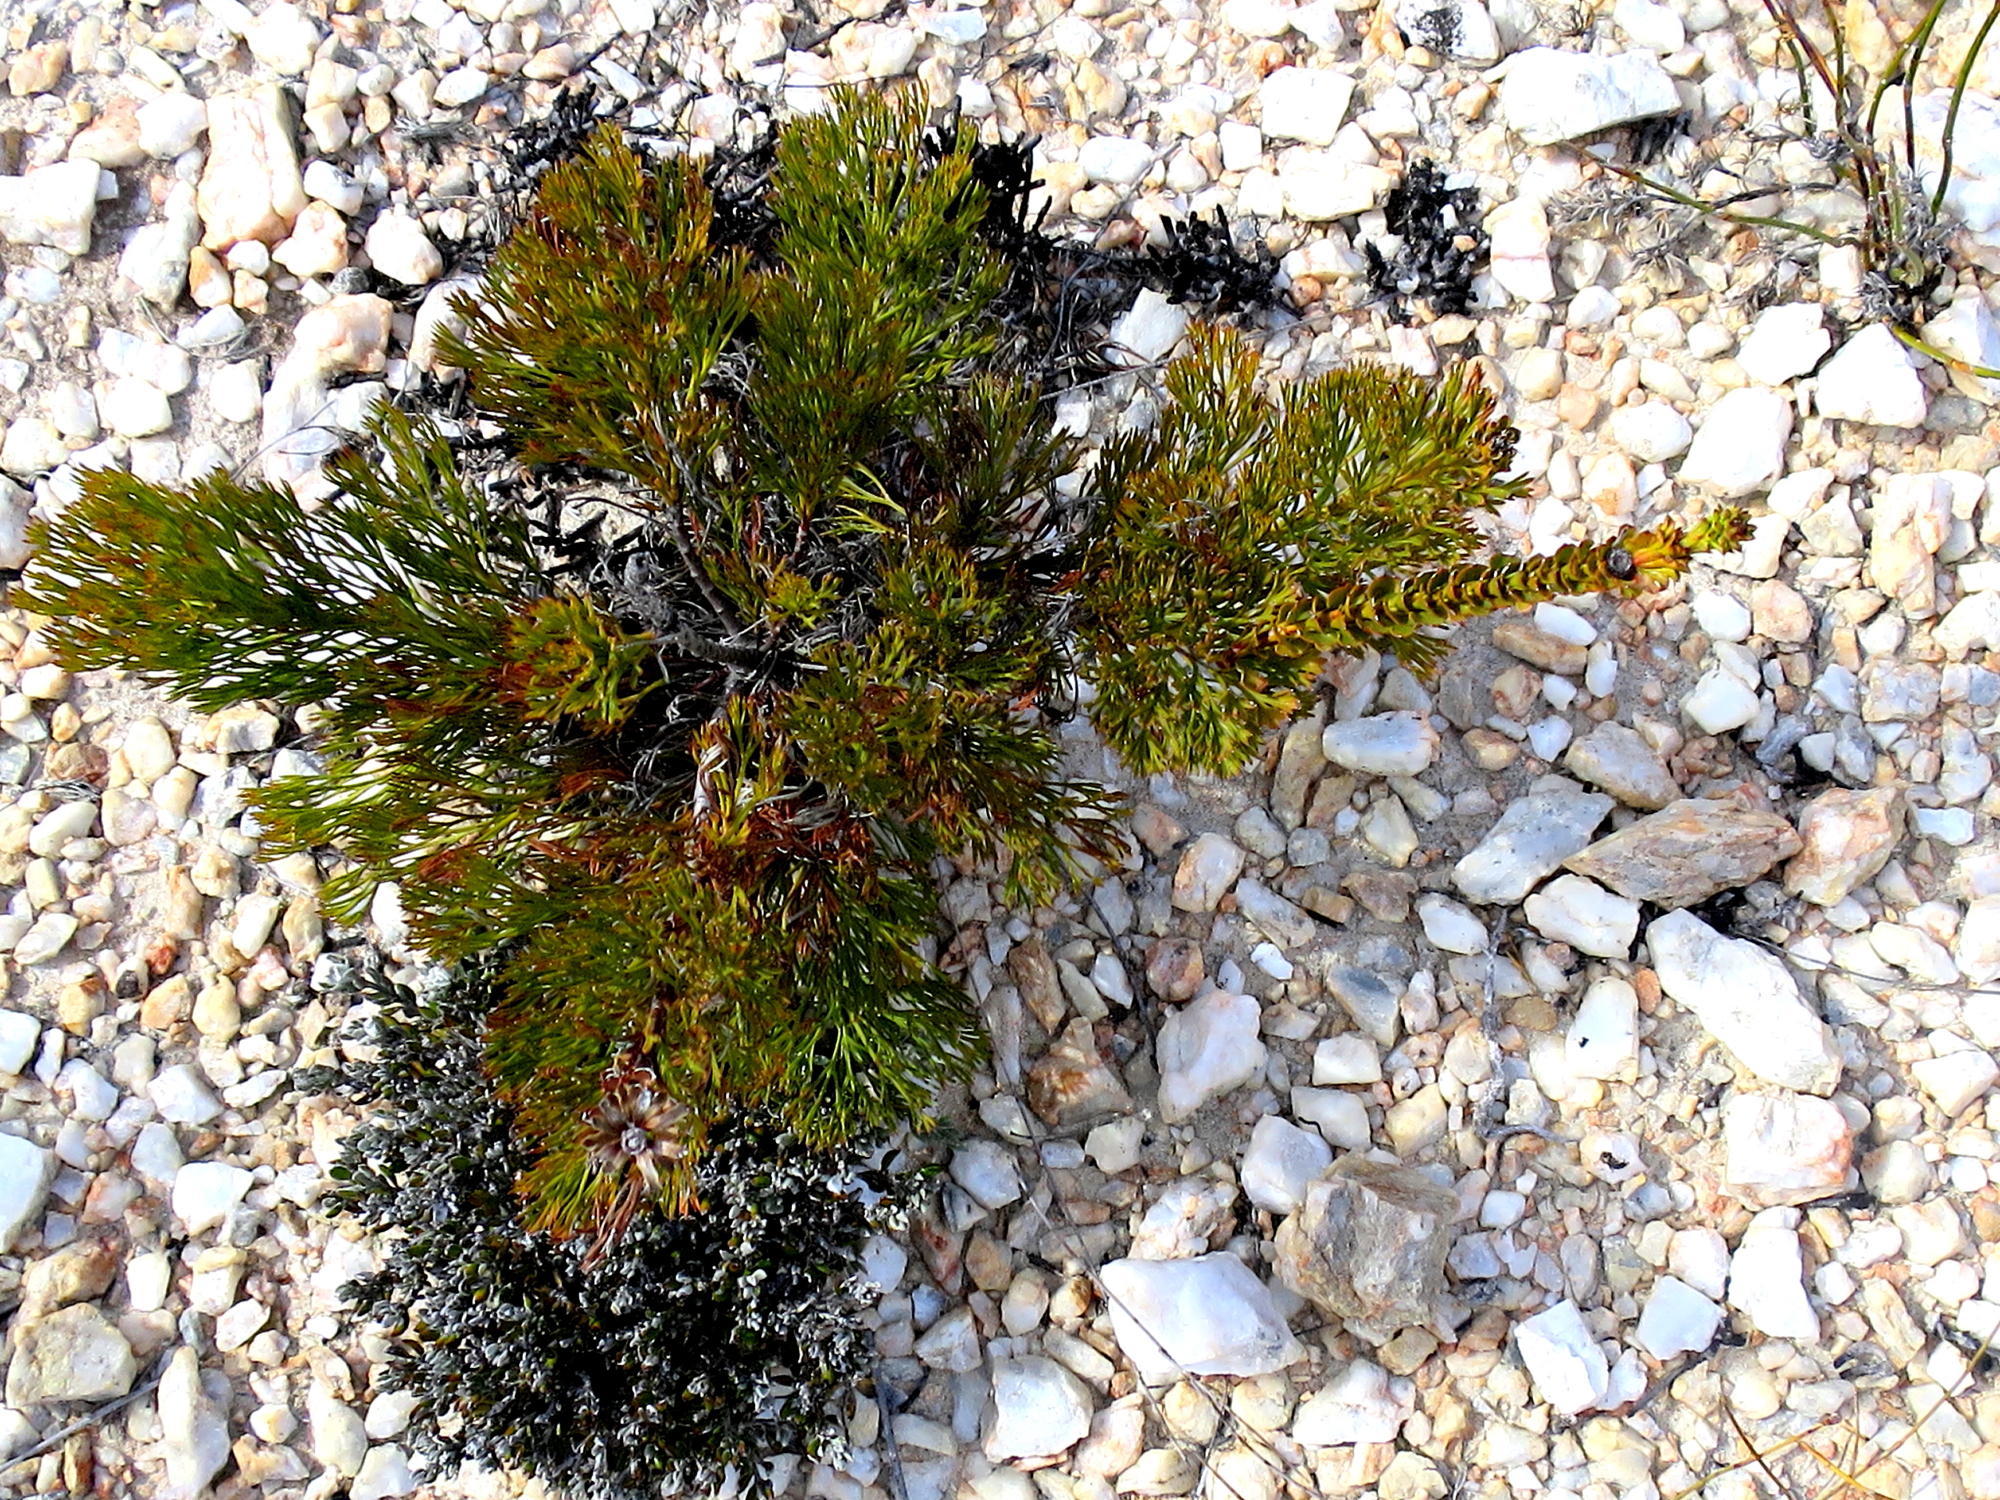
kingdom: Plantae
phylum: Tracheophyta
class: Magnoliopsida
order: Proteales
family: Proteaceae
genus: Paranomus
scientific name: Paranomus longicaulis
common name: Exploding baked apple
